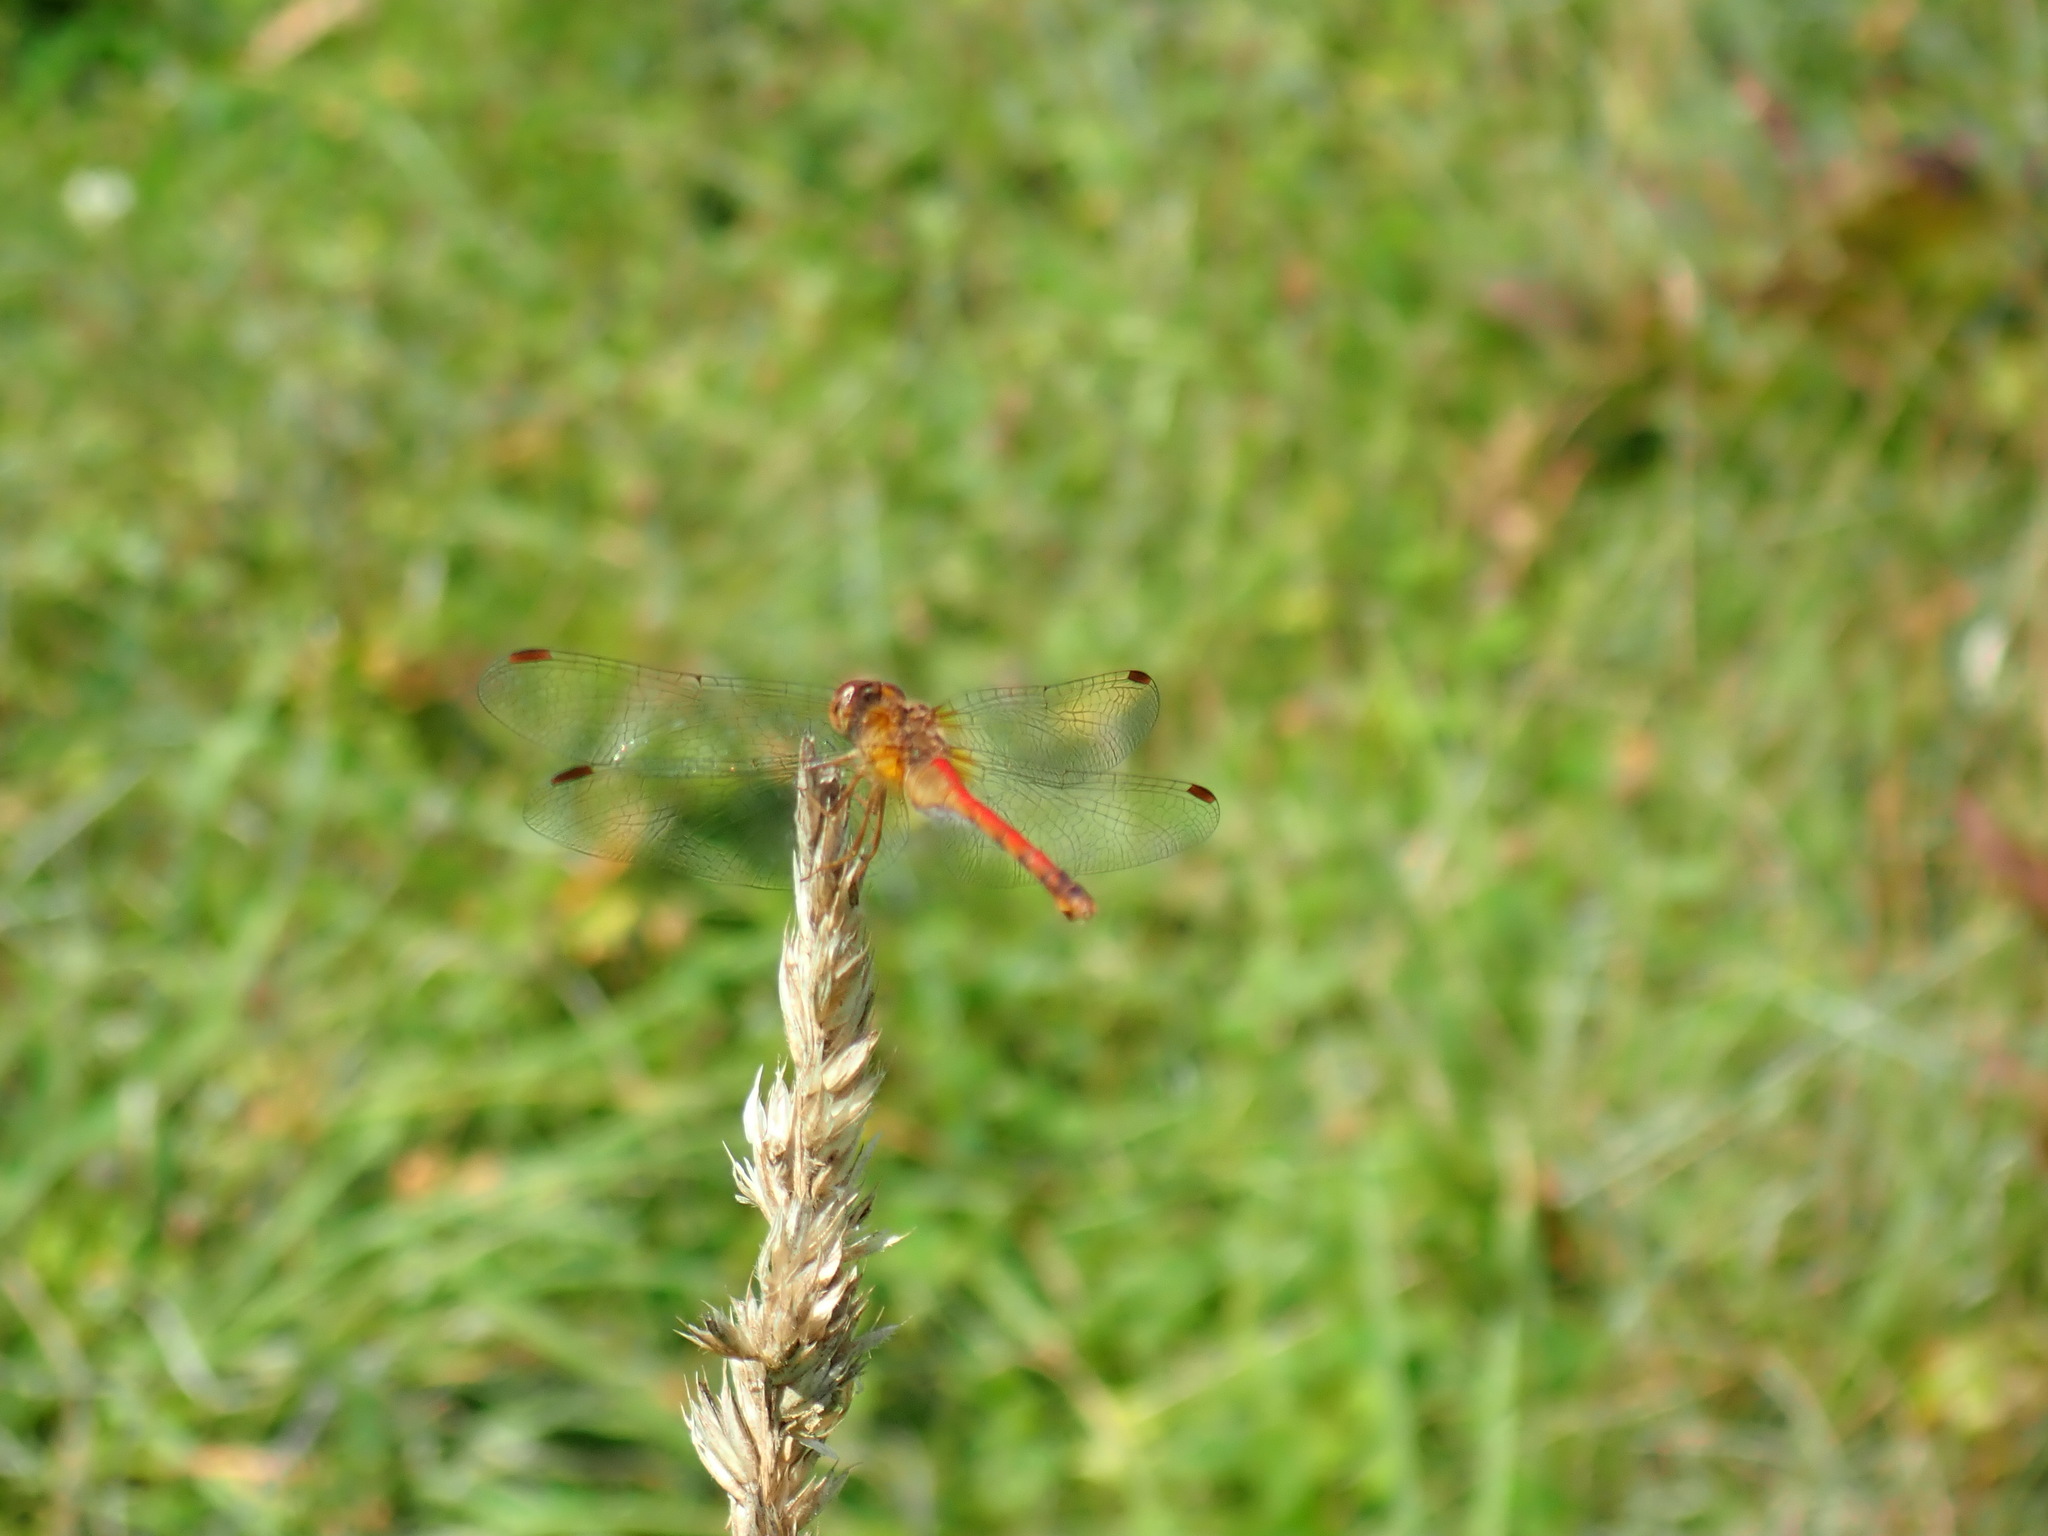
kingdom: Animalia
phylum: Arthropoda
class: Insecta
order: Odonata
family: Libellulidae
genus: Sympetrum
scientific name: Sympetrum vicinum
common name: Autumn meadowhawk
